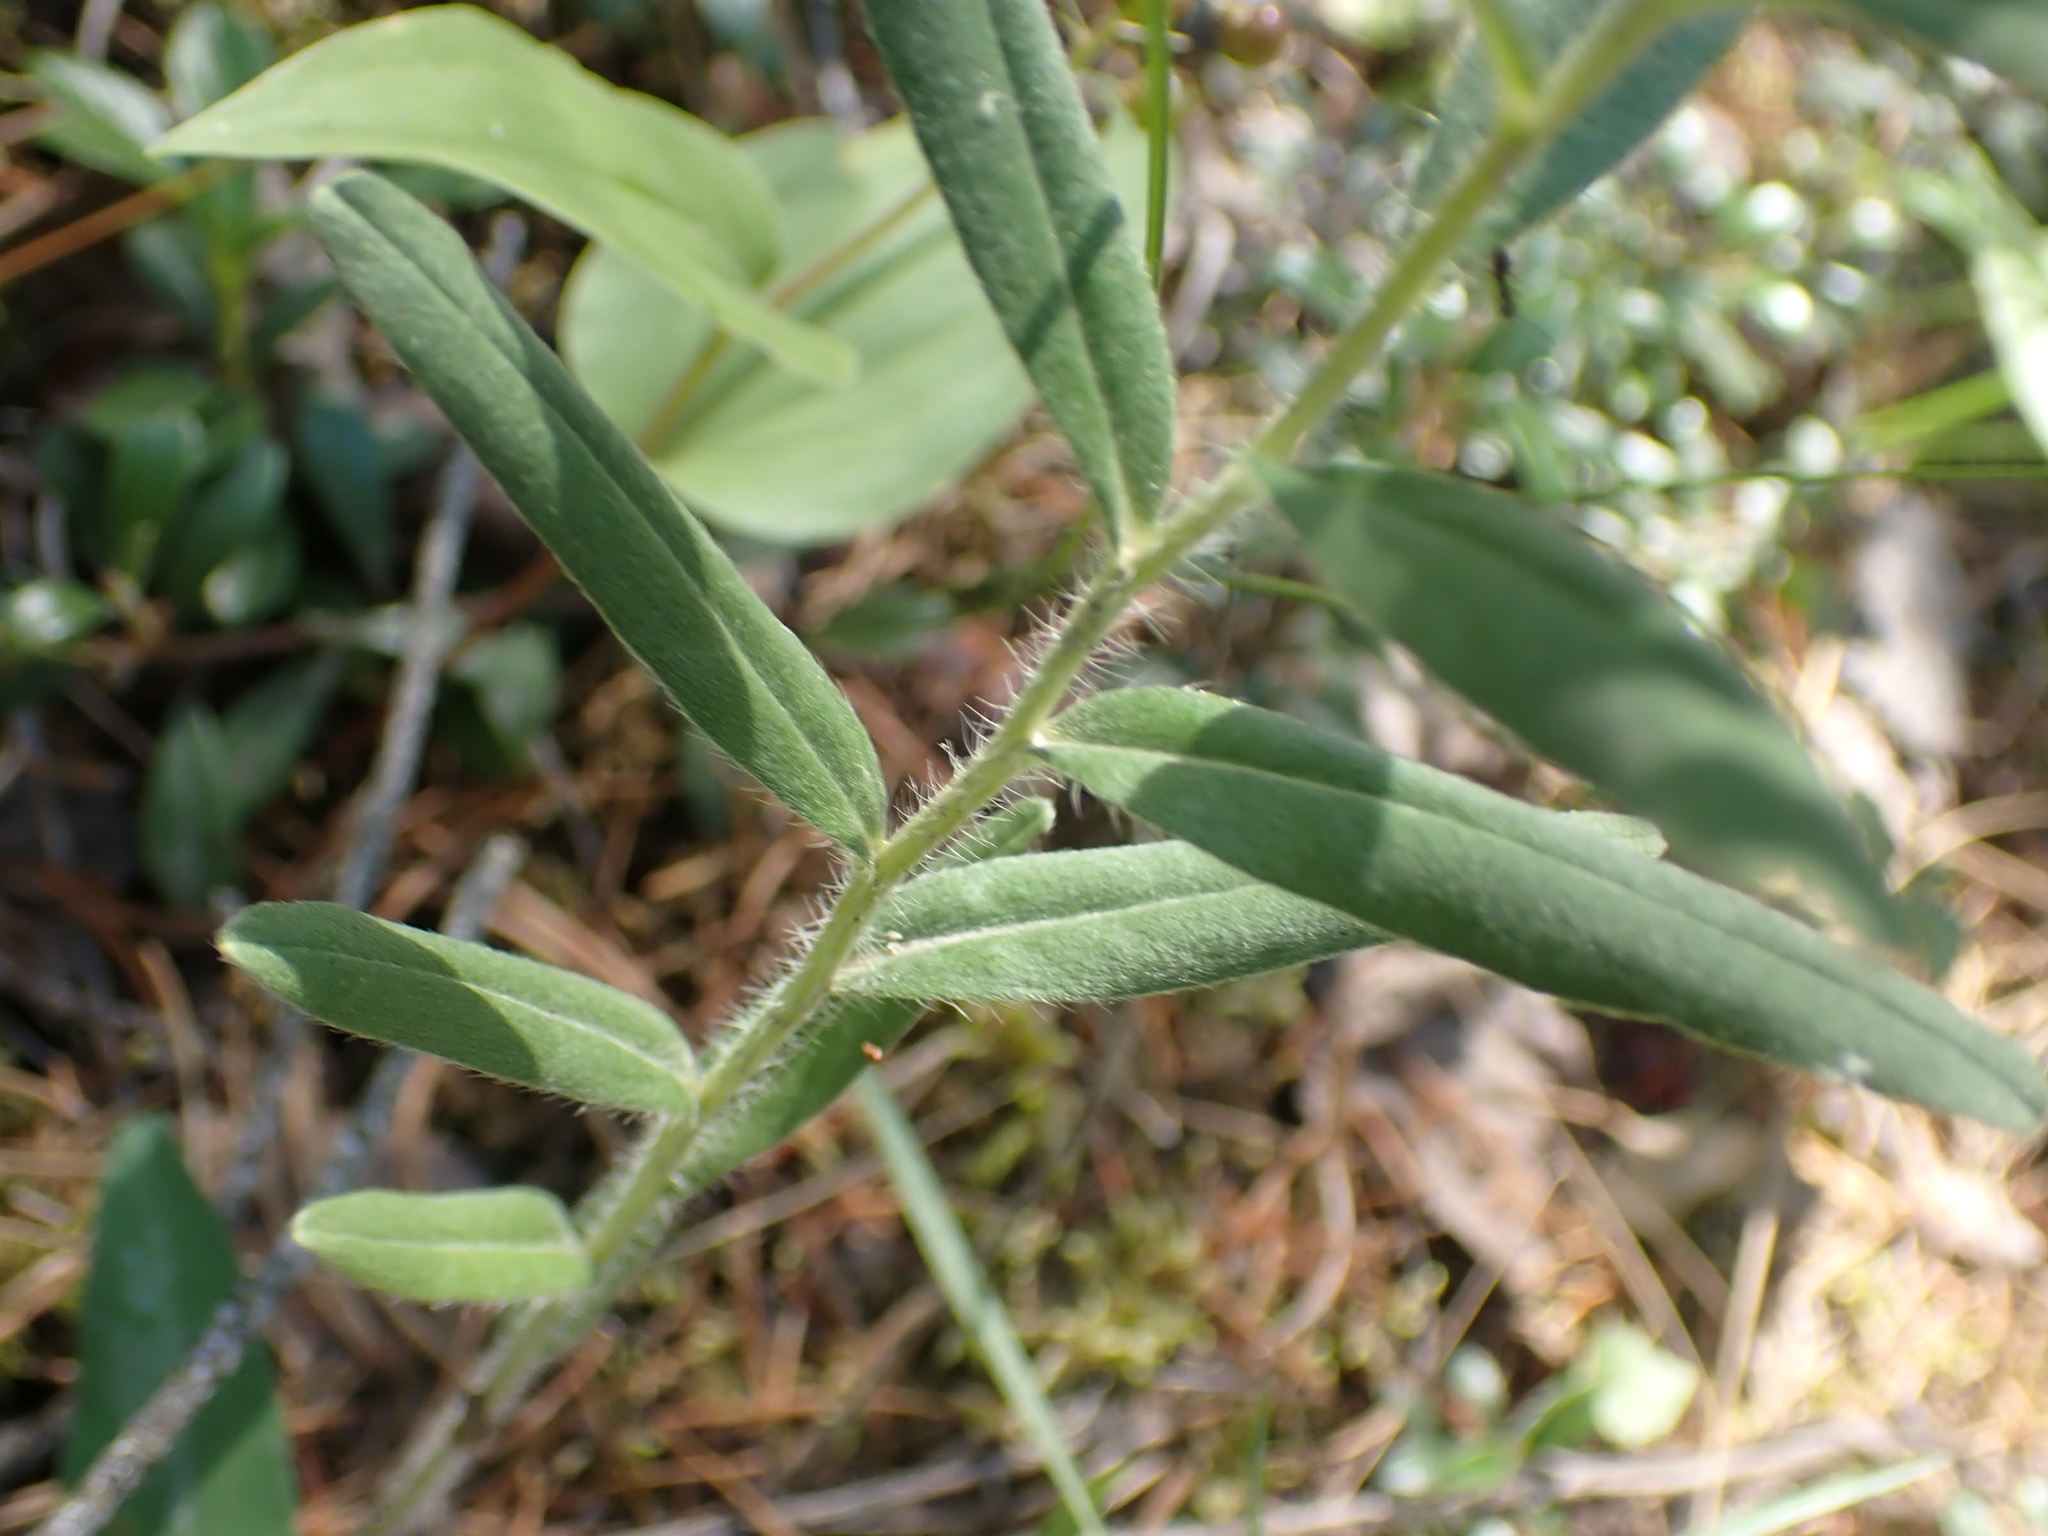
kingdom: Plantae
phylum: Tracheophyta
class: Magnoliopsida
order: Boraginales
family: Boraginaceae
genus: Lithospermum
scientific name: Lithospermum canescens
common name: Hoary puccoon
